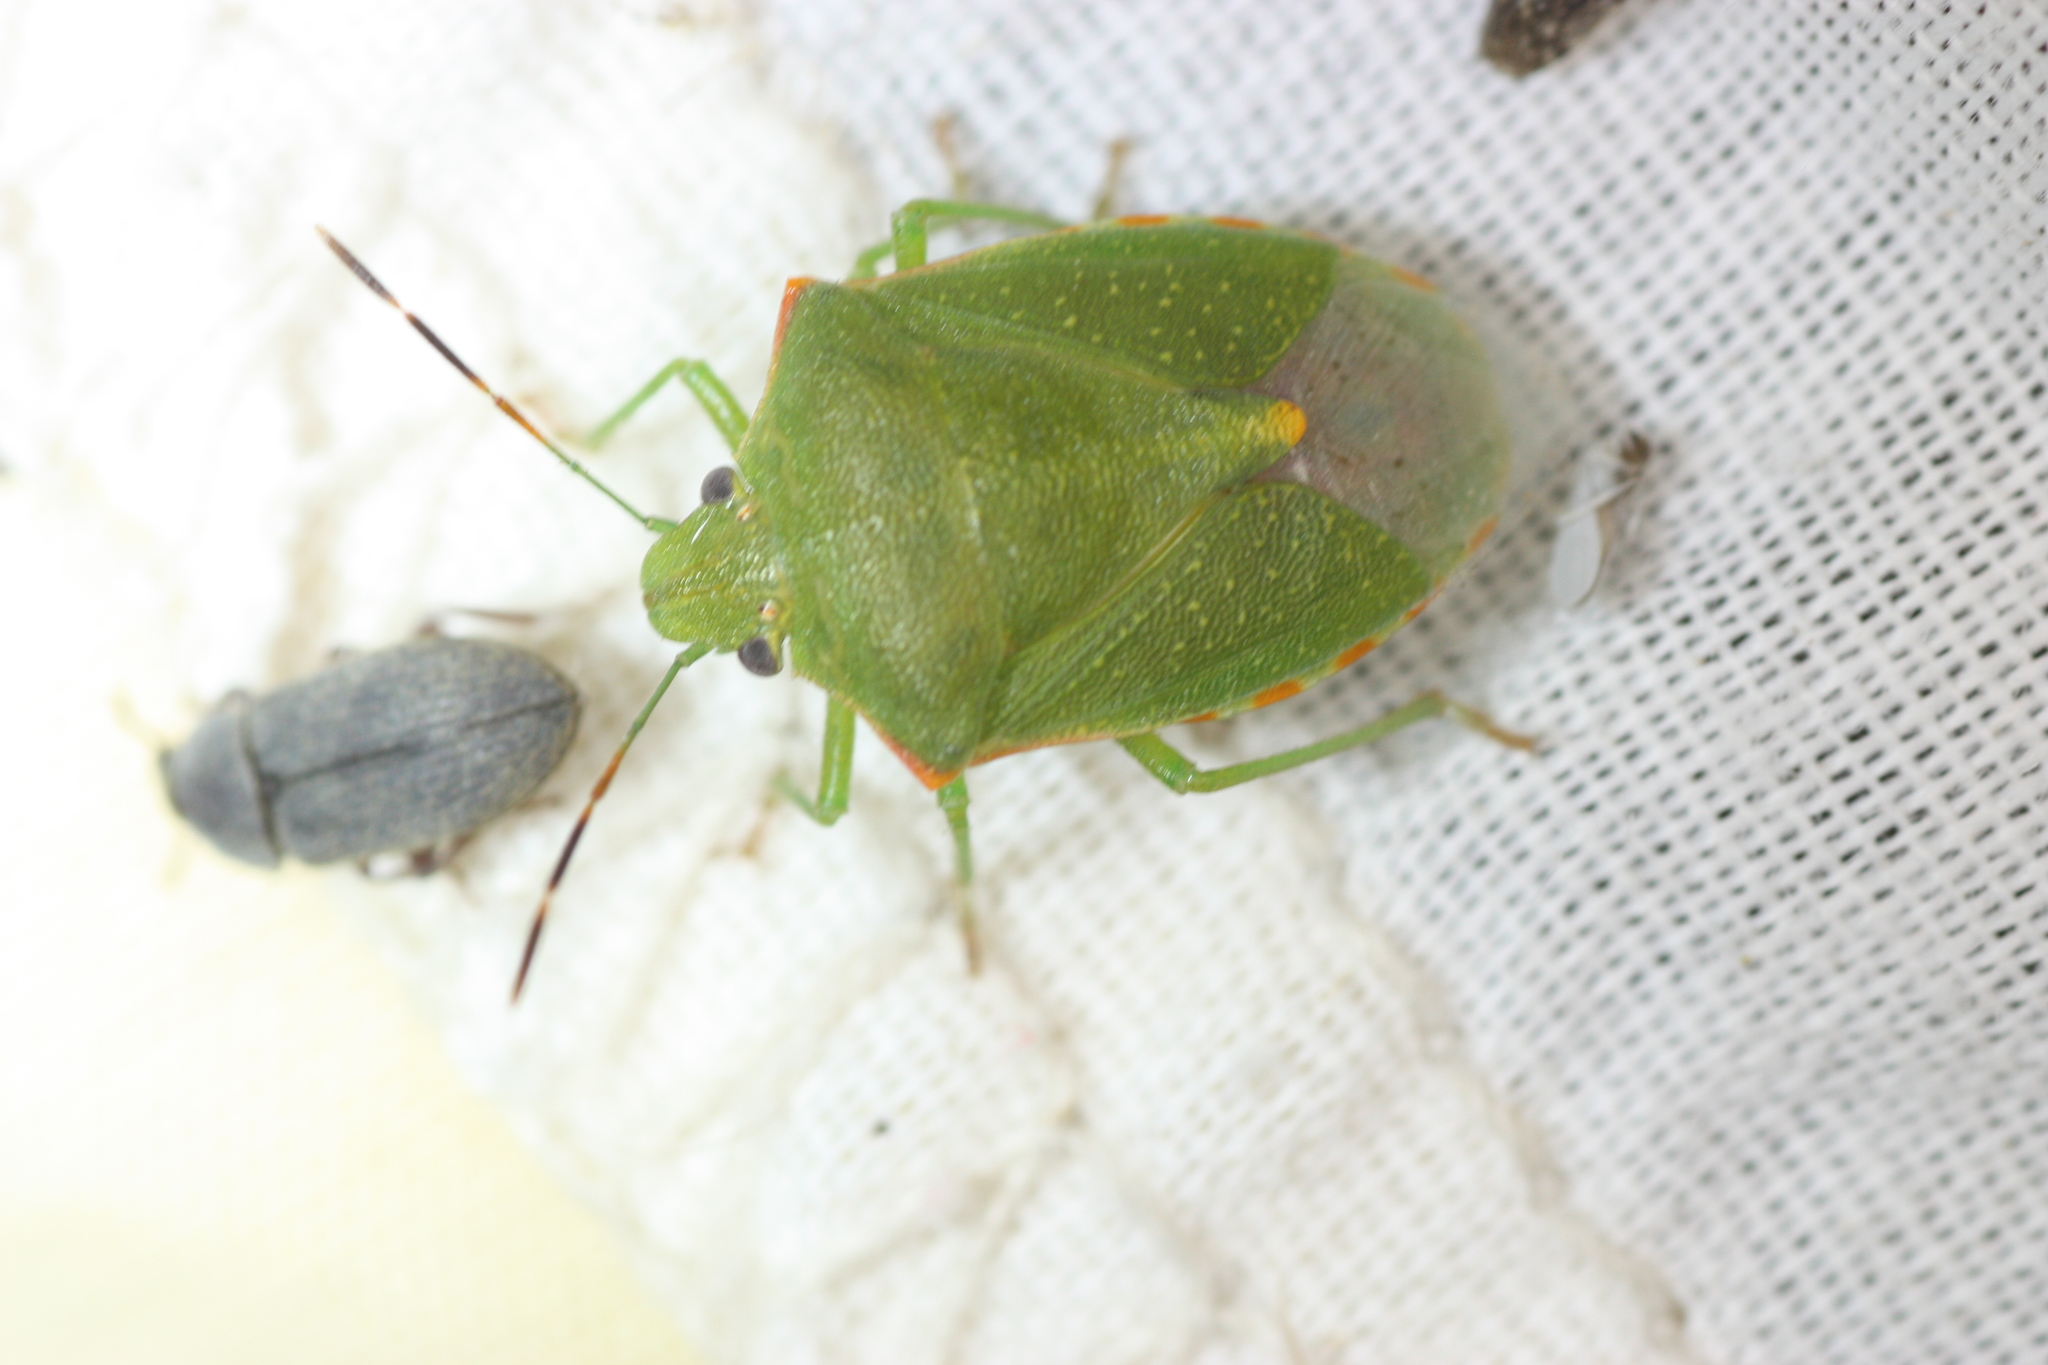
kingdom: Animalia
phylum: Arthropoda
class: Insecta
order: Hemiptera
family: Pentatomidae
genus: Thyanta
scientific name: Thyanta accerra
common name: Stink bug
